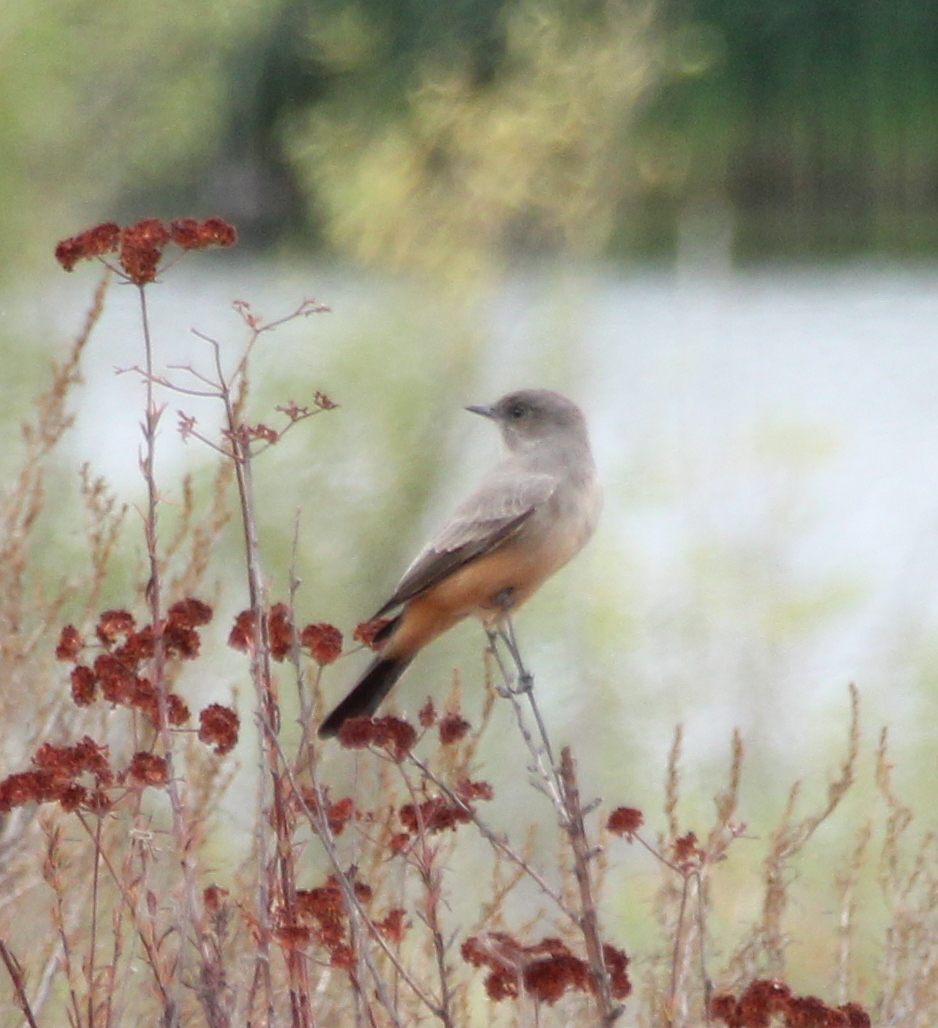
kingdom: Animalia
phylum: Chordata
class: Aves
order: Passeriformes
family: Tyrannidae
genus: Sayornis
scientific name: Sayornis saya
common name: Say's phoebe
